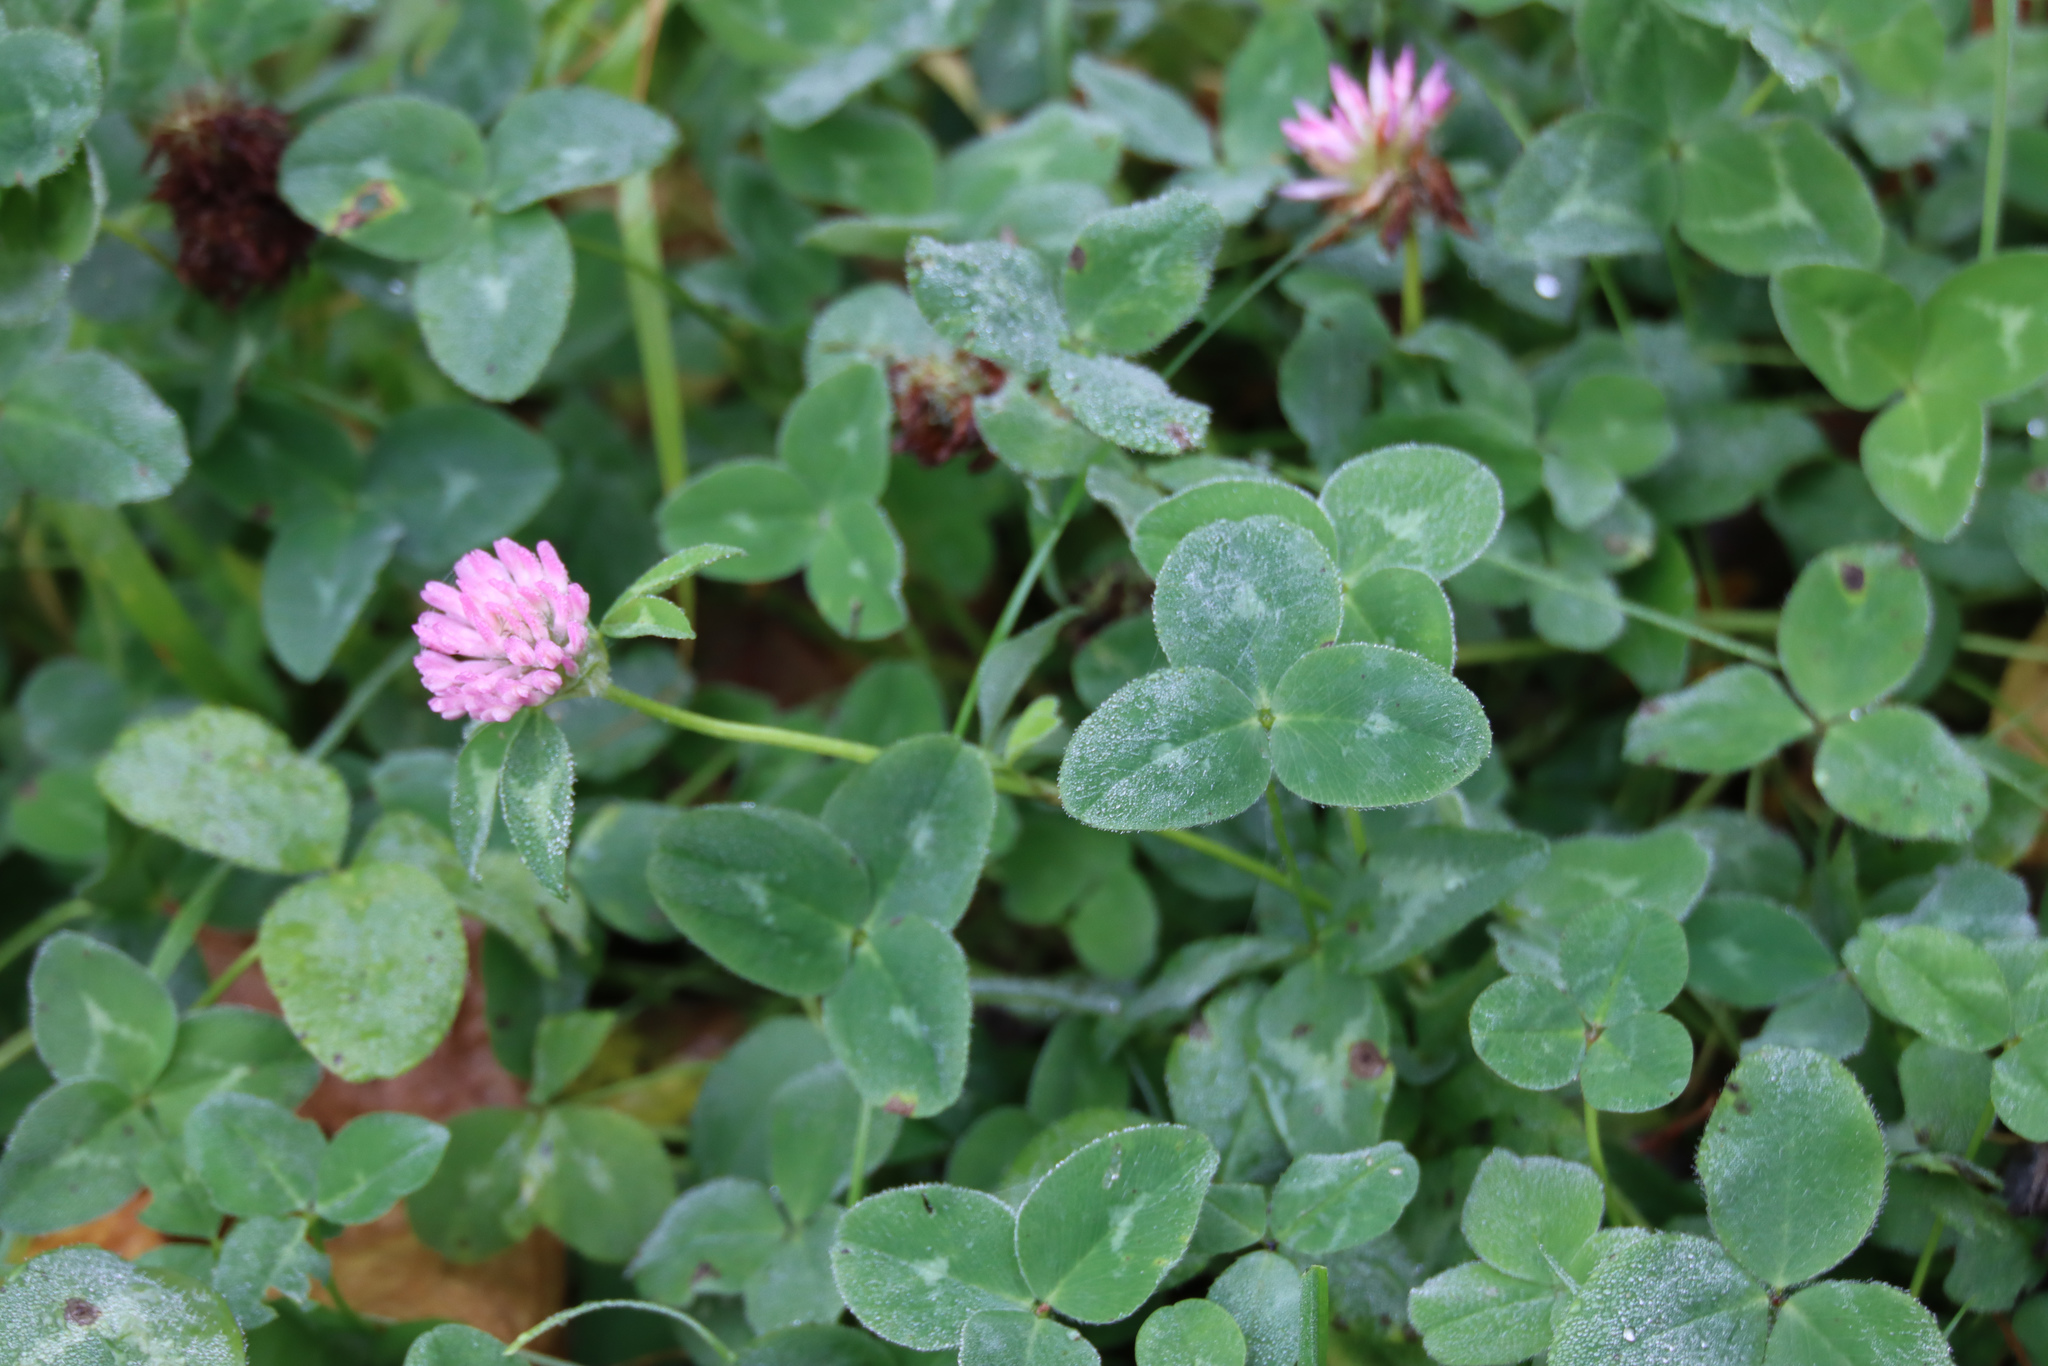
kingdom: Plantae
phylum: Tracheophyta
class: Magnoliopsida
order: Fabales
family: Fabaceae
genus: Trifolium
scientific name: Trifolium pratense
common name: Red clover
